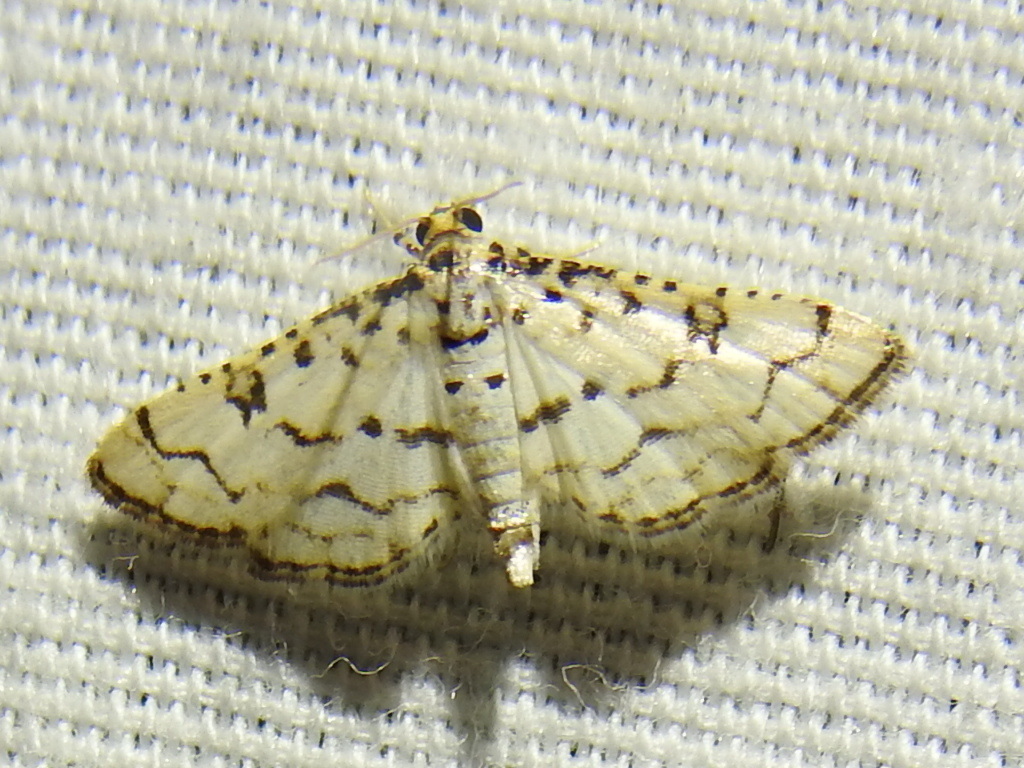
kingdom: Animalia
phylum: Arthropoda
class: Insecta
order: Lepidoptera
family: Crambidae
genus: Hileithia
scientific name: Hileithia rehamalis
